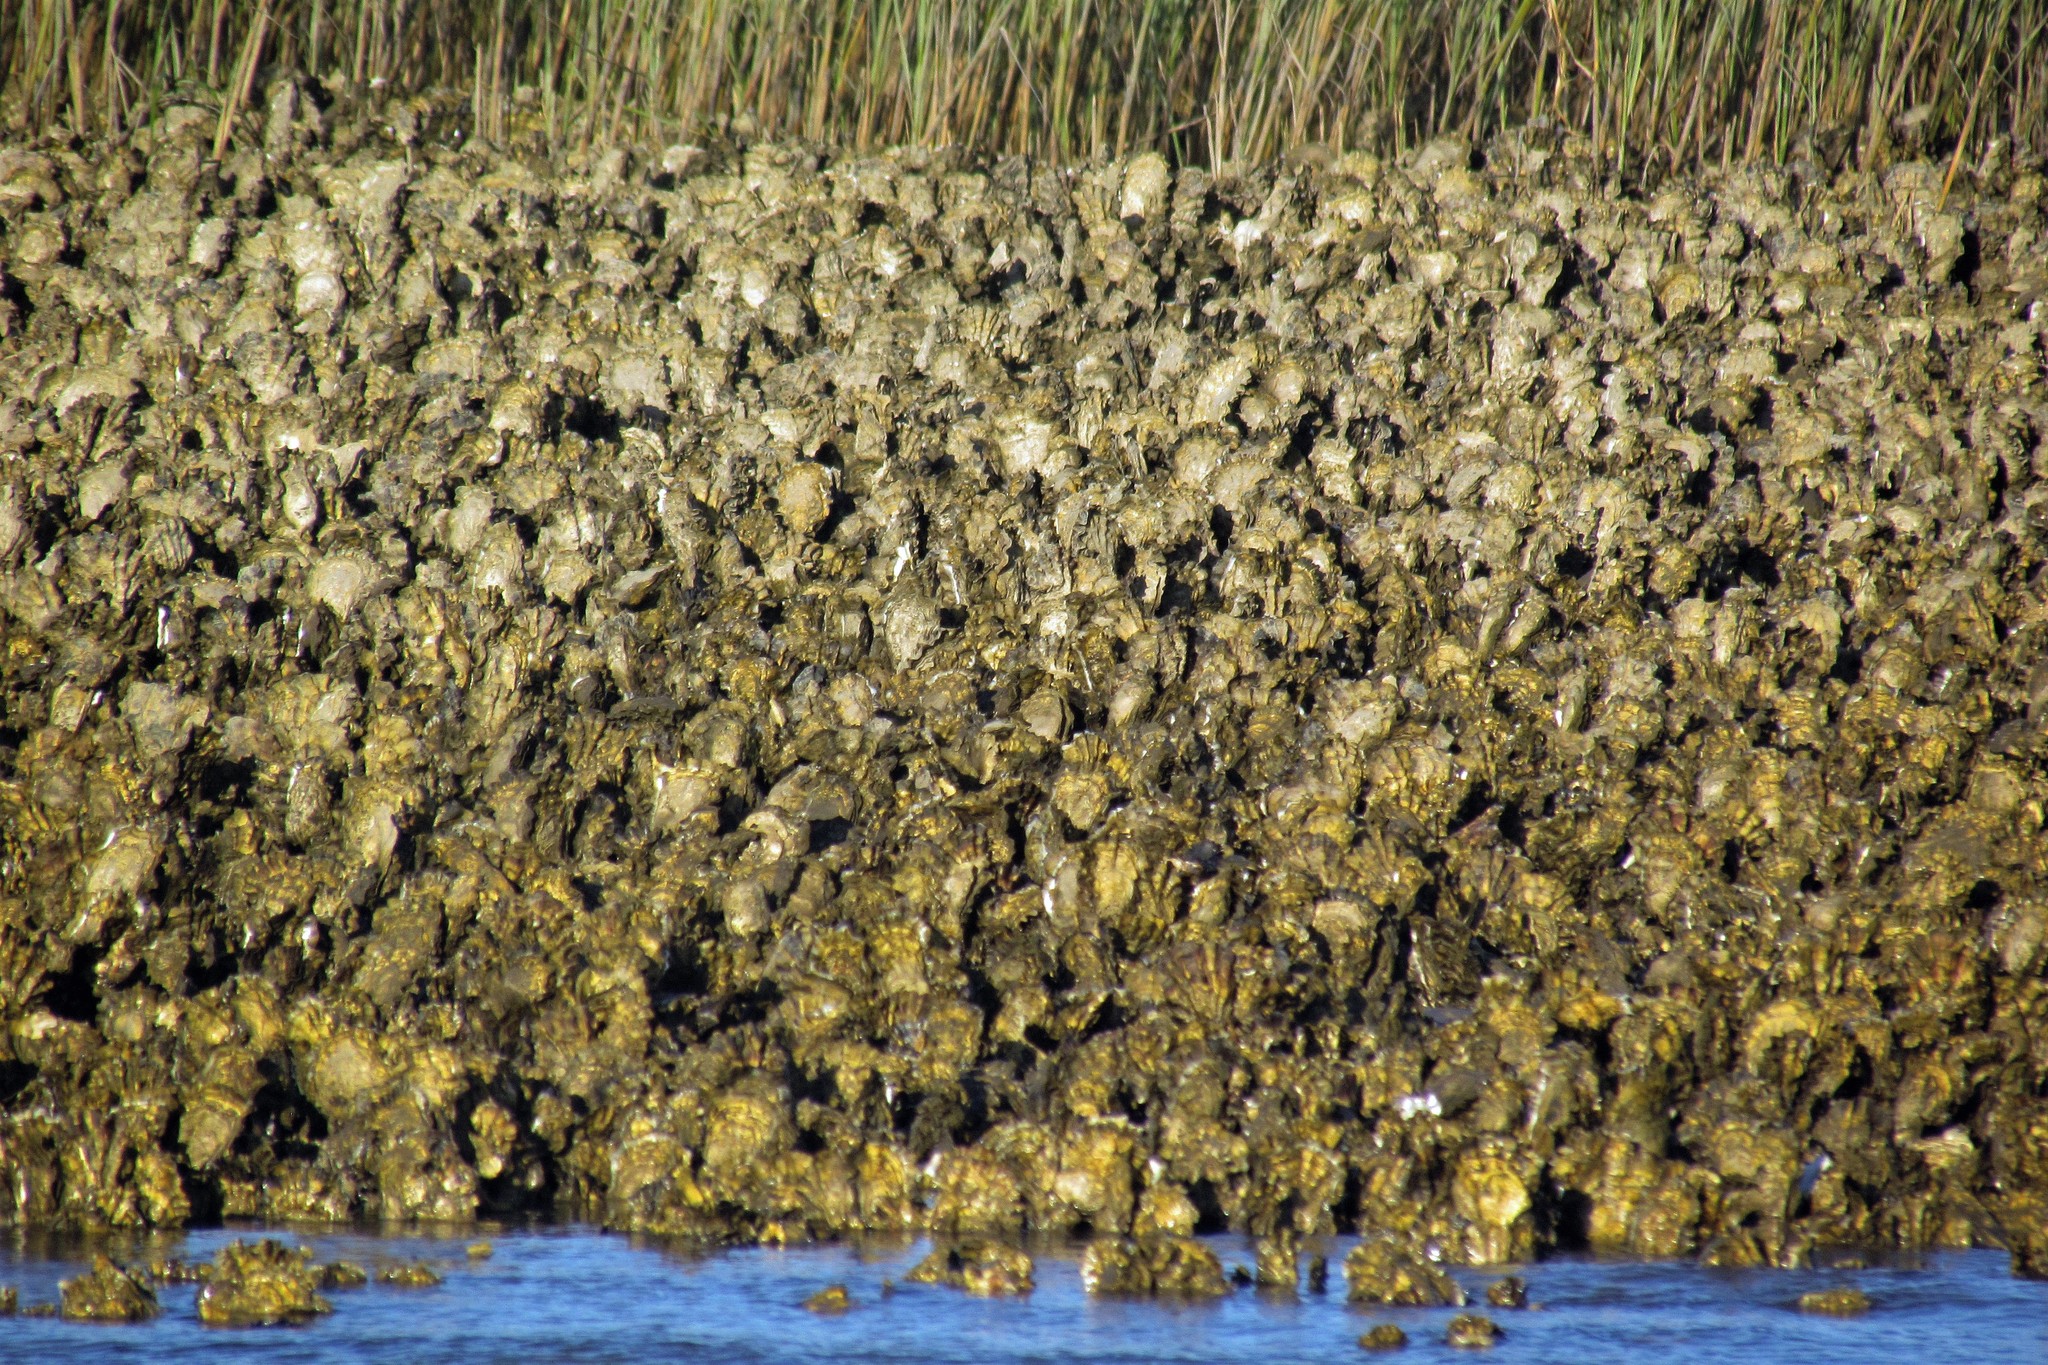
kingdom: Animalia
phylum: Mollusca
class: Bivalvia
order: Ostreida
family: Ostreidae
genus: Magallana
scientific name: Magallana gigas
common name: Pacific oyster
